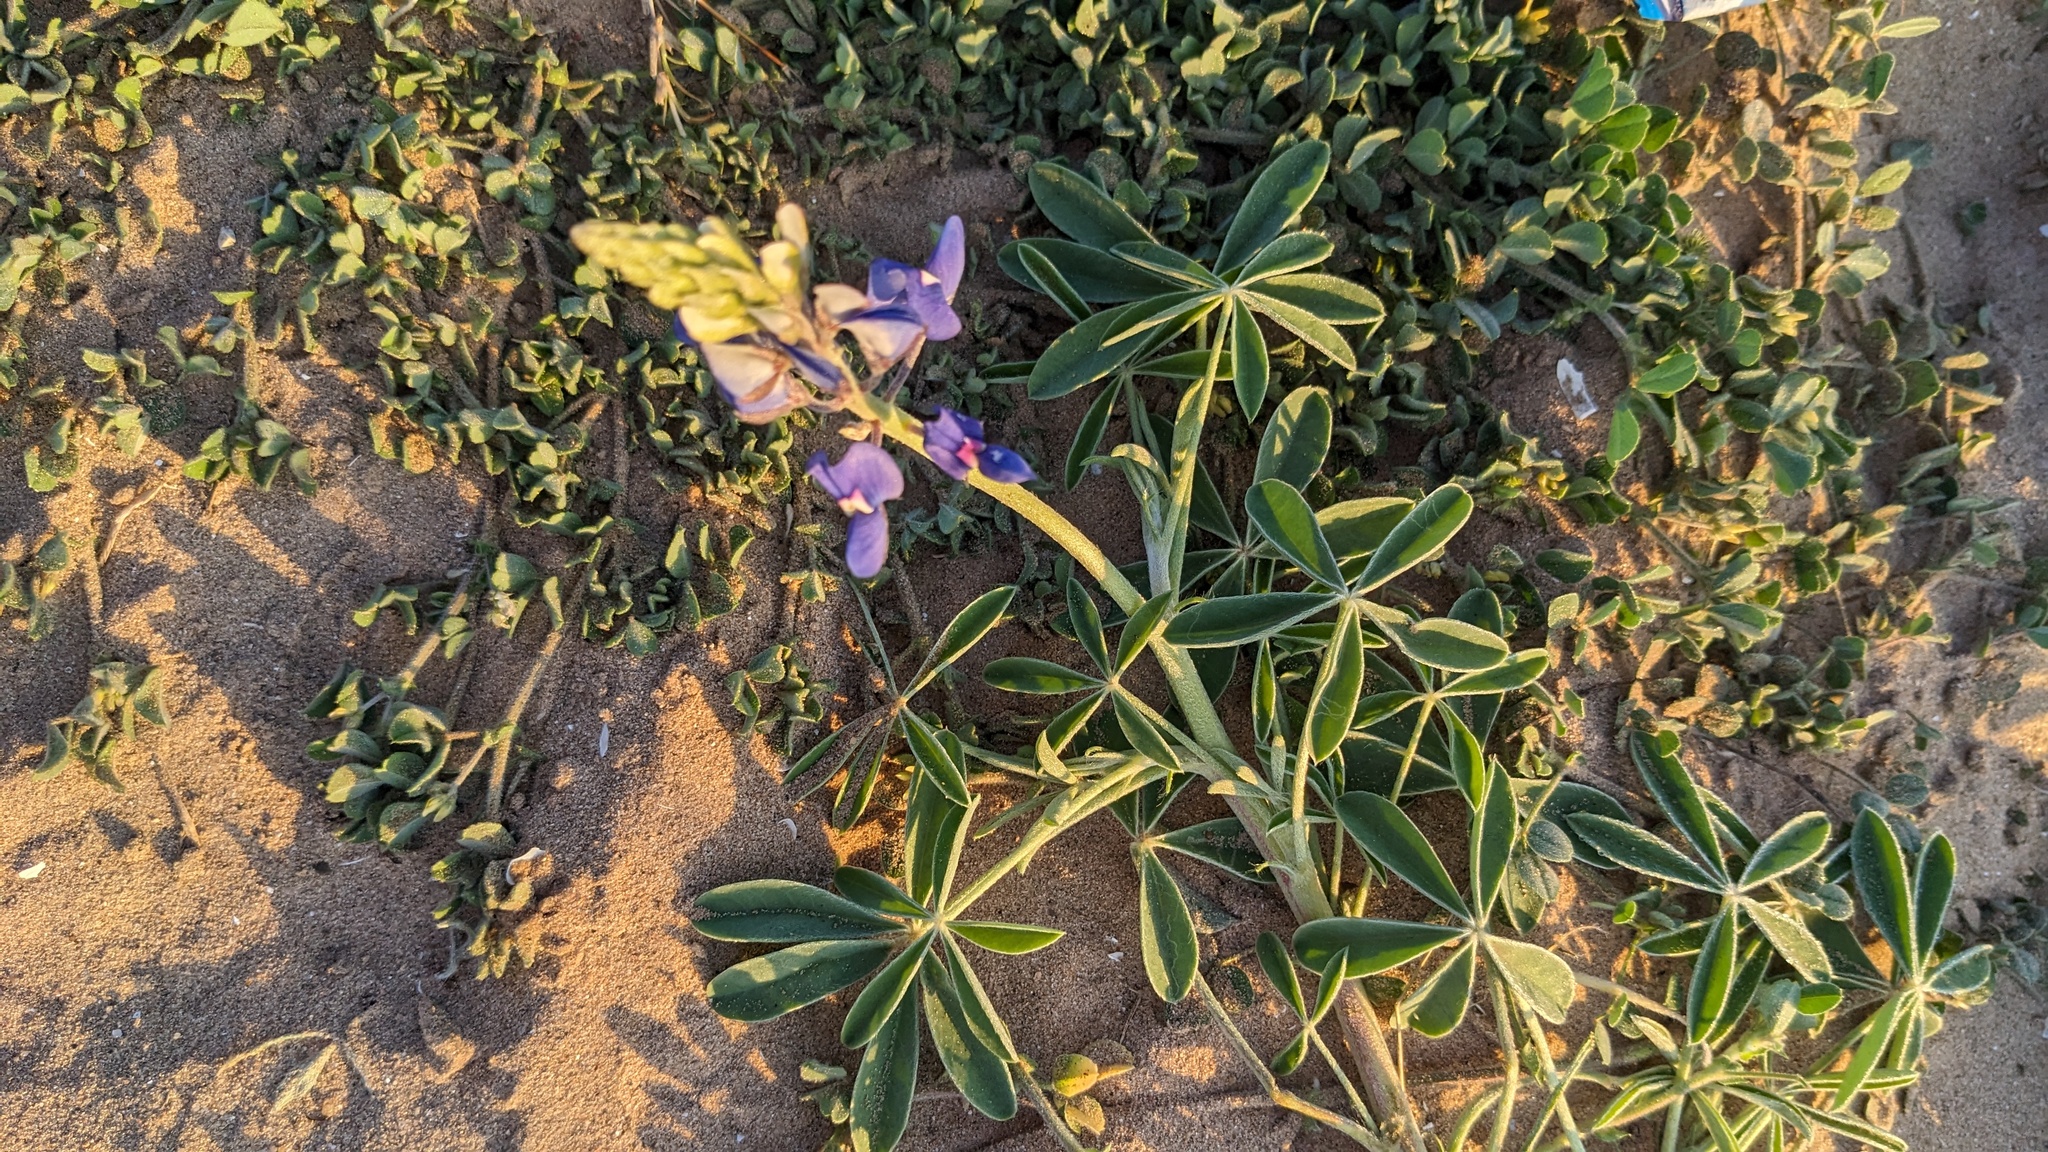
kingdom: Plantae
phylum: Tracheophyta
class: Magnoliopsida
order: Fabales
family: Fabaceae
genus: Lupinus
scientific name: Lupinus texensis
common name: Texas bluebonnet
